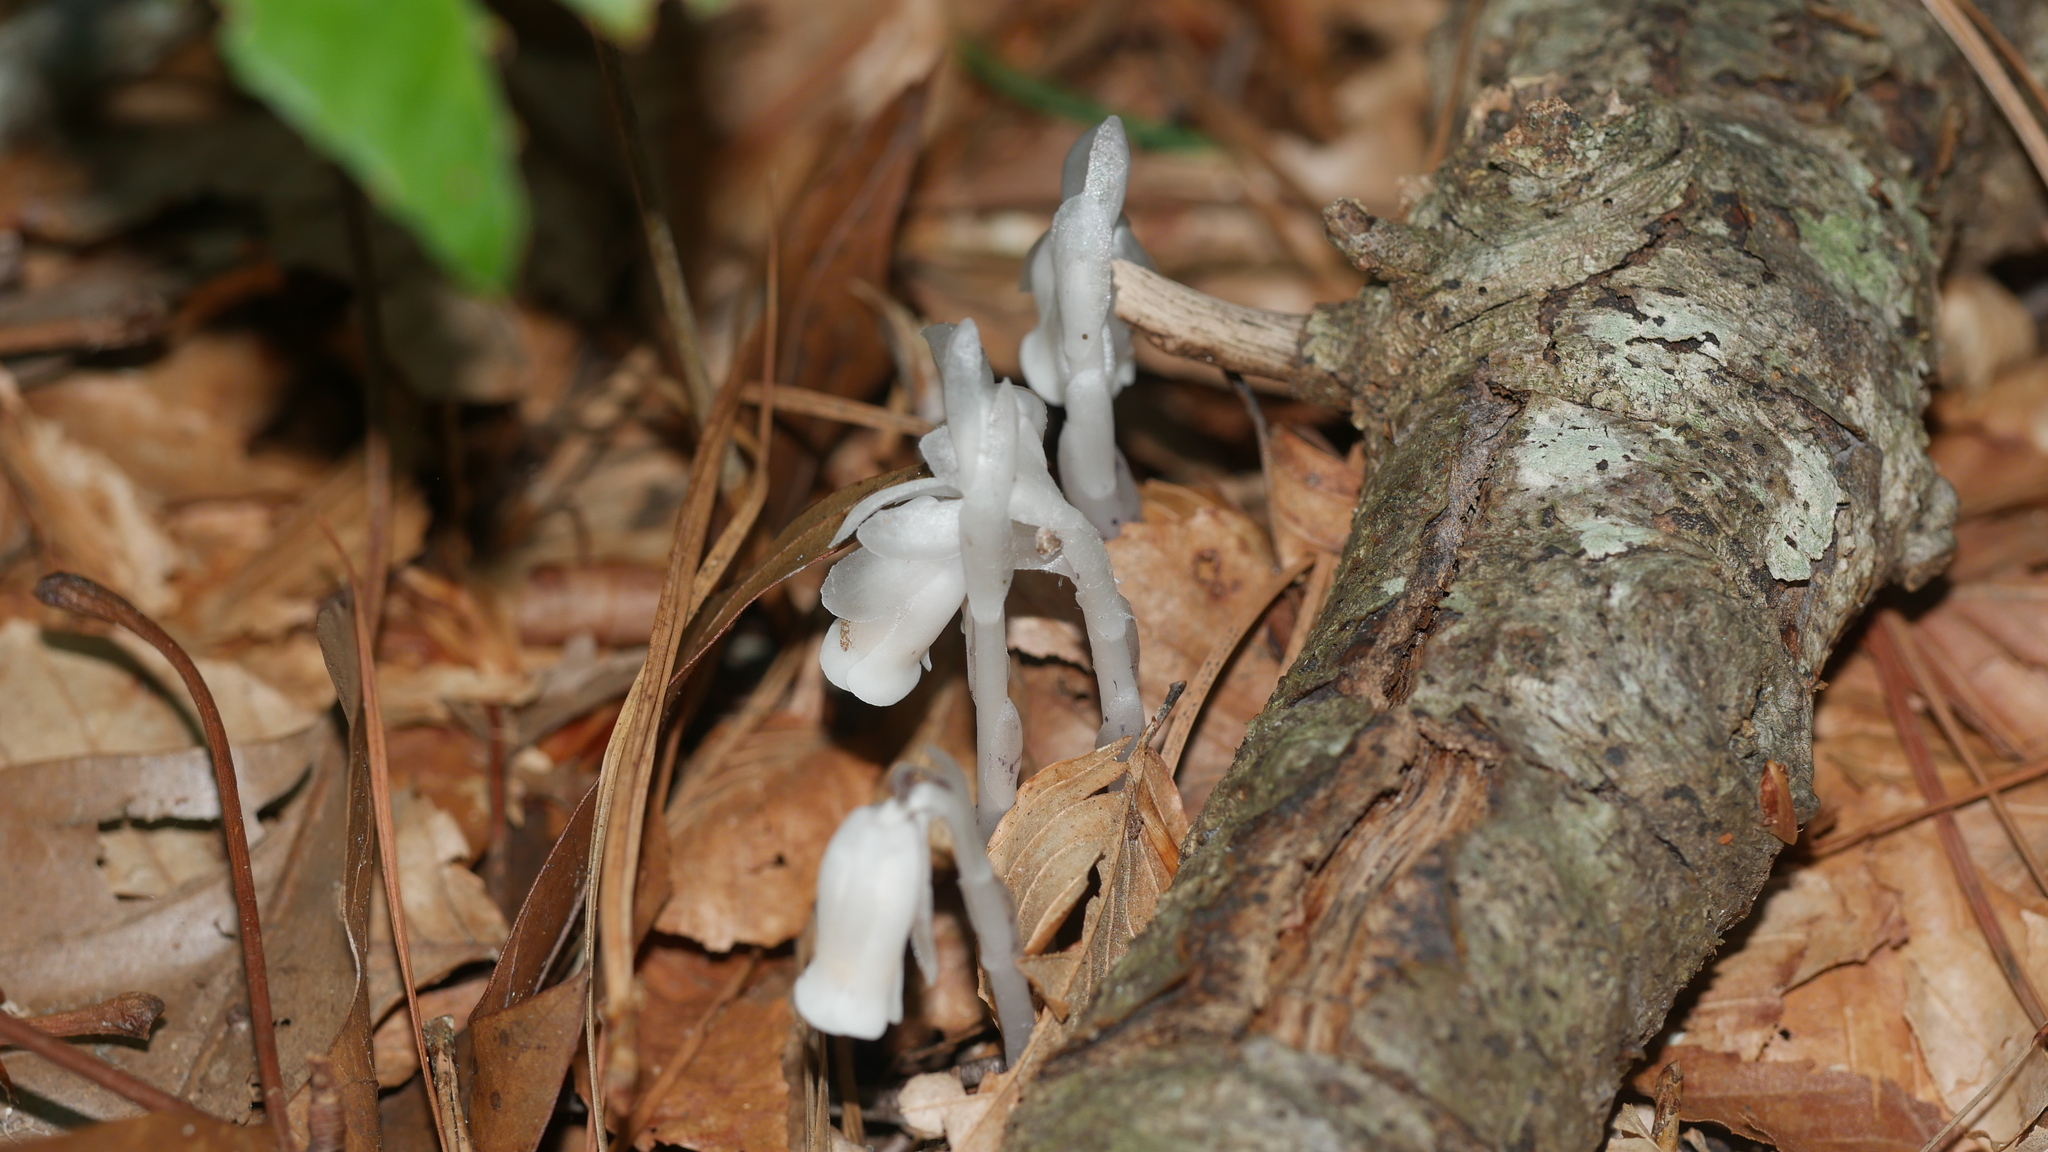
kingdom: Plantae
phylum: Tracheophyta
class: Magnoliopsida
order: Ericales
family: Ericaceae
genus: Monotropa
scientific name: Monotropa uniflora
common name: Convulsion root
